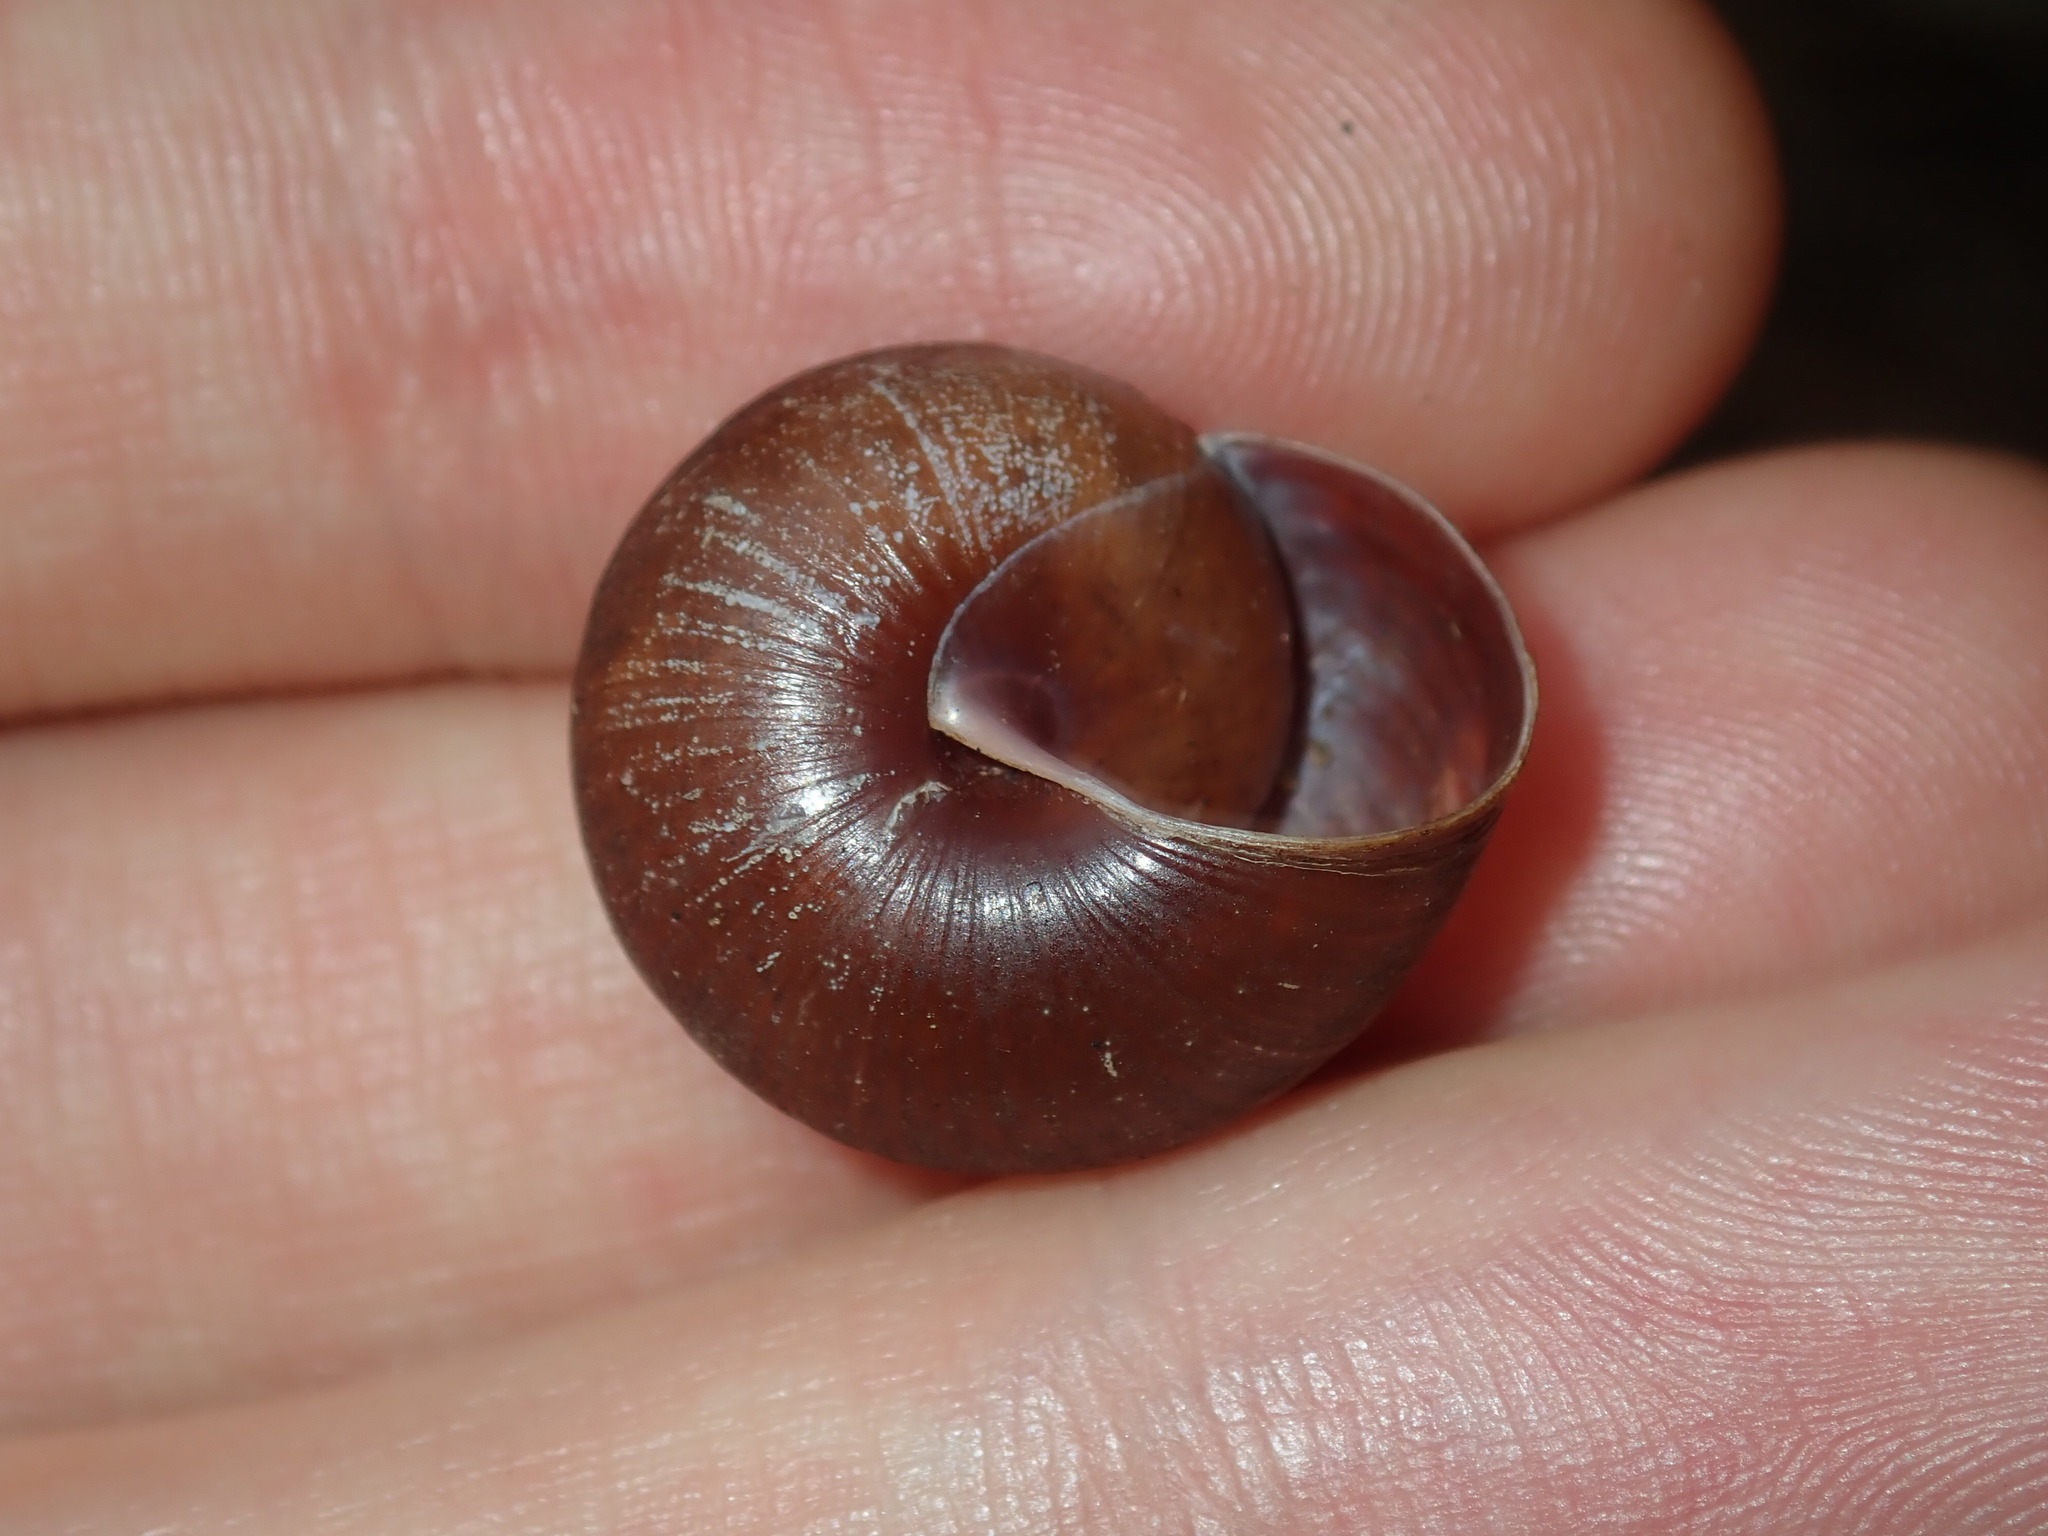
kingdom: Animalia
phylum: Mollusca
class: Gastropoda
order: Stylommatophora
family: Camaenidae
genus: Sauroconcha
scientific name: Sauroconcha sheai
